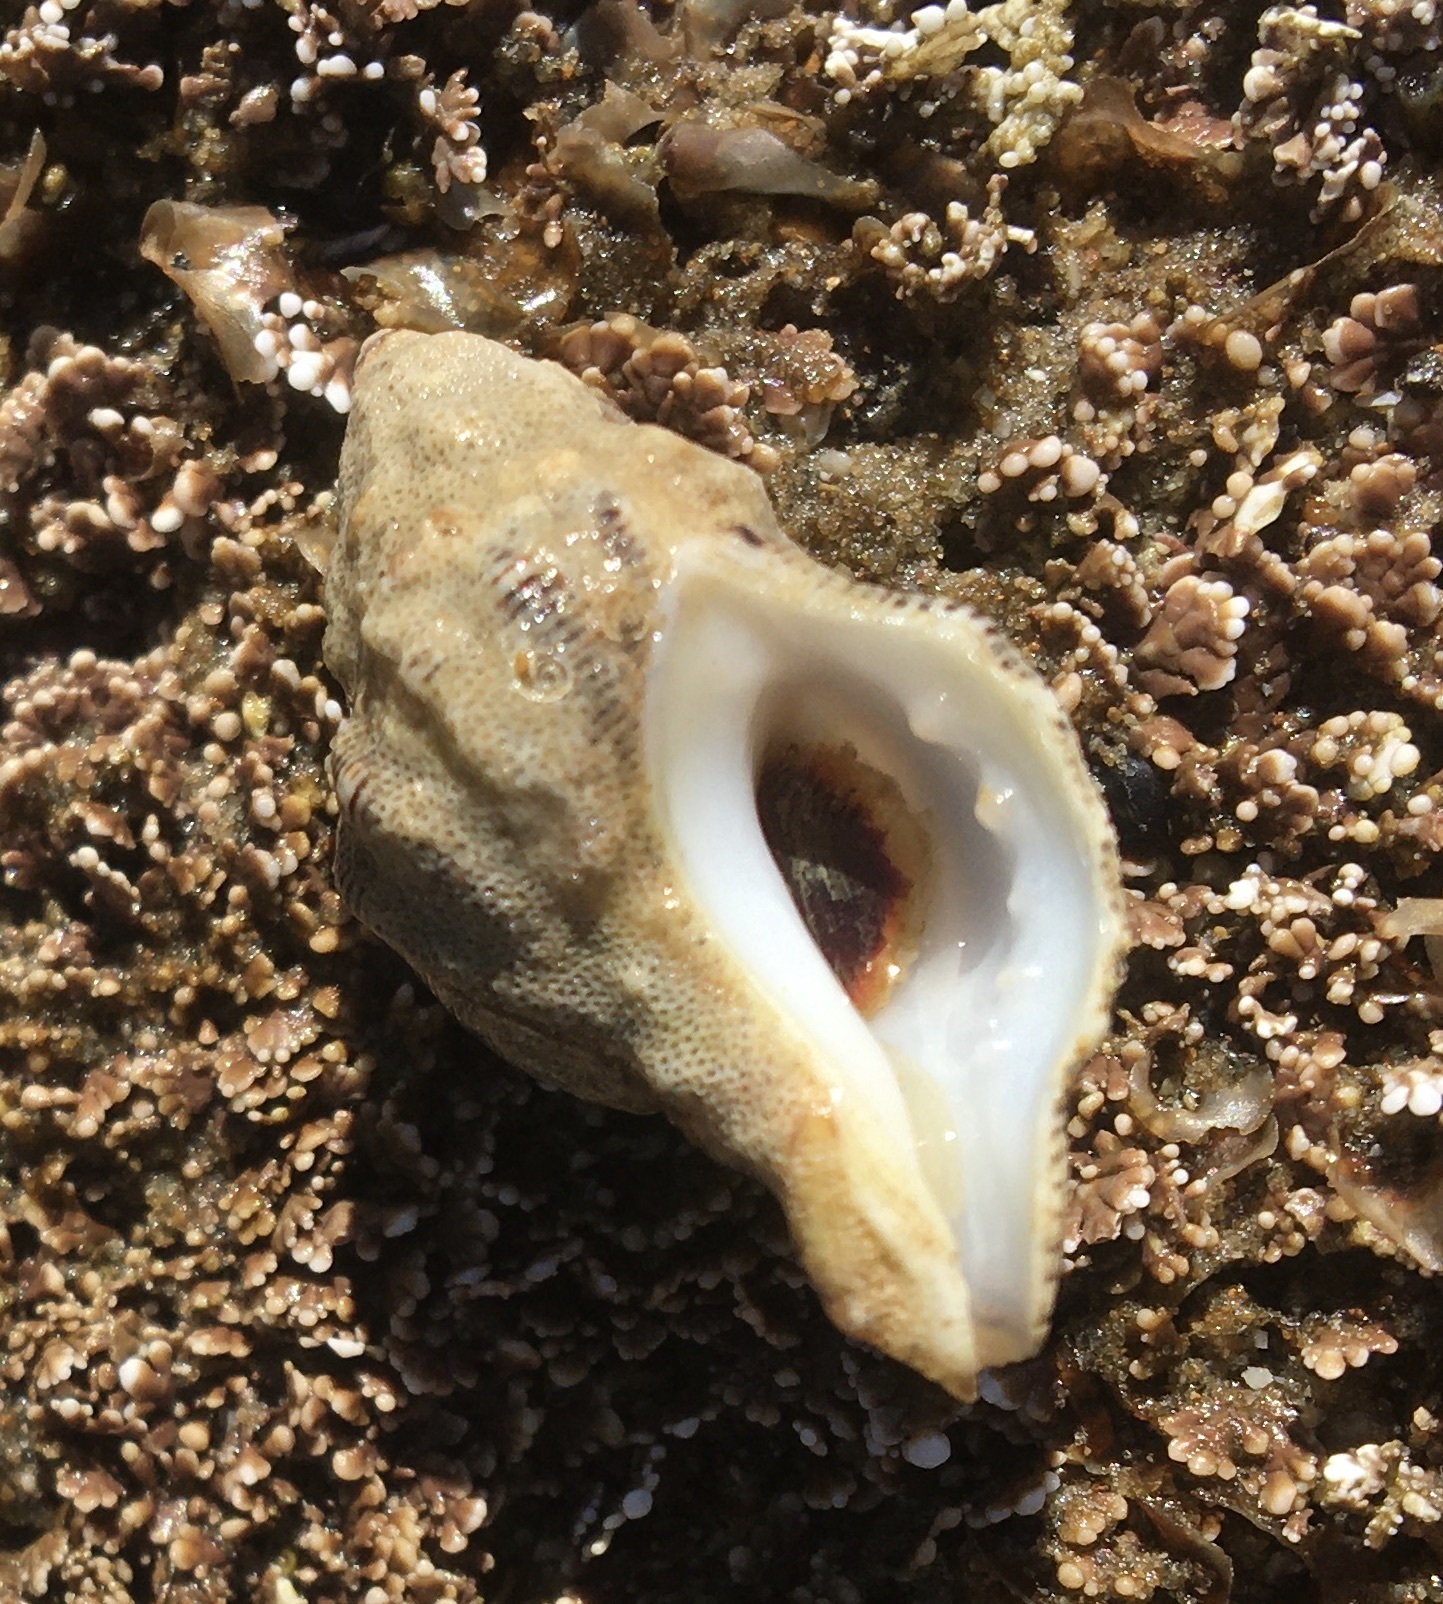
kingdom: Animalia
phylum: Mollusca
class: Gastropoda
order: Neogastropoda
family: Muricidae
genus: Roperia
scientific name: Roperia poulsoni
